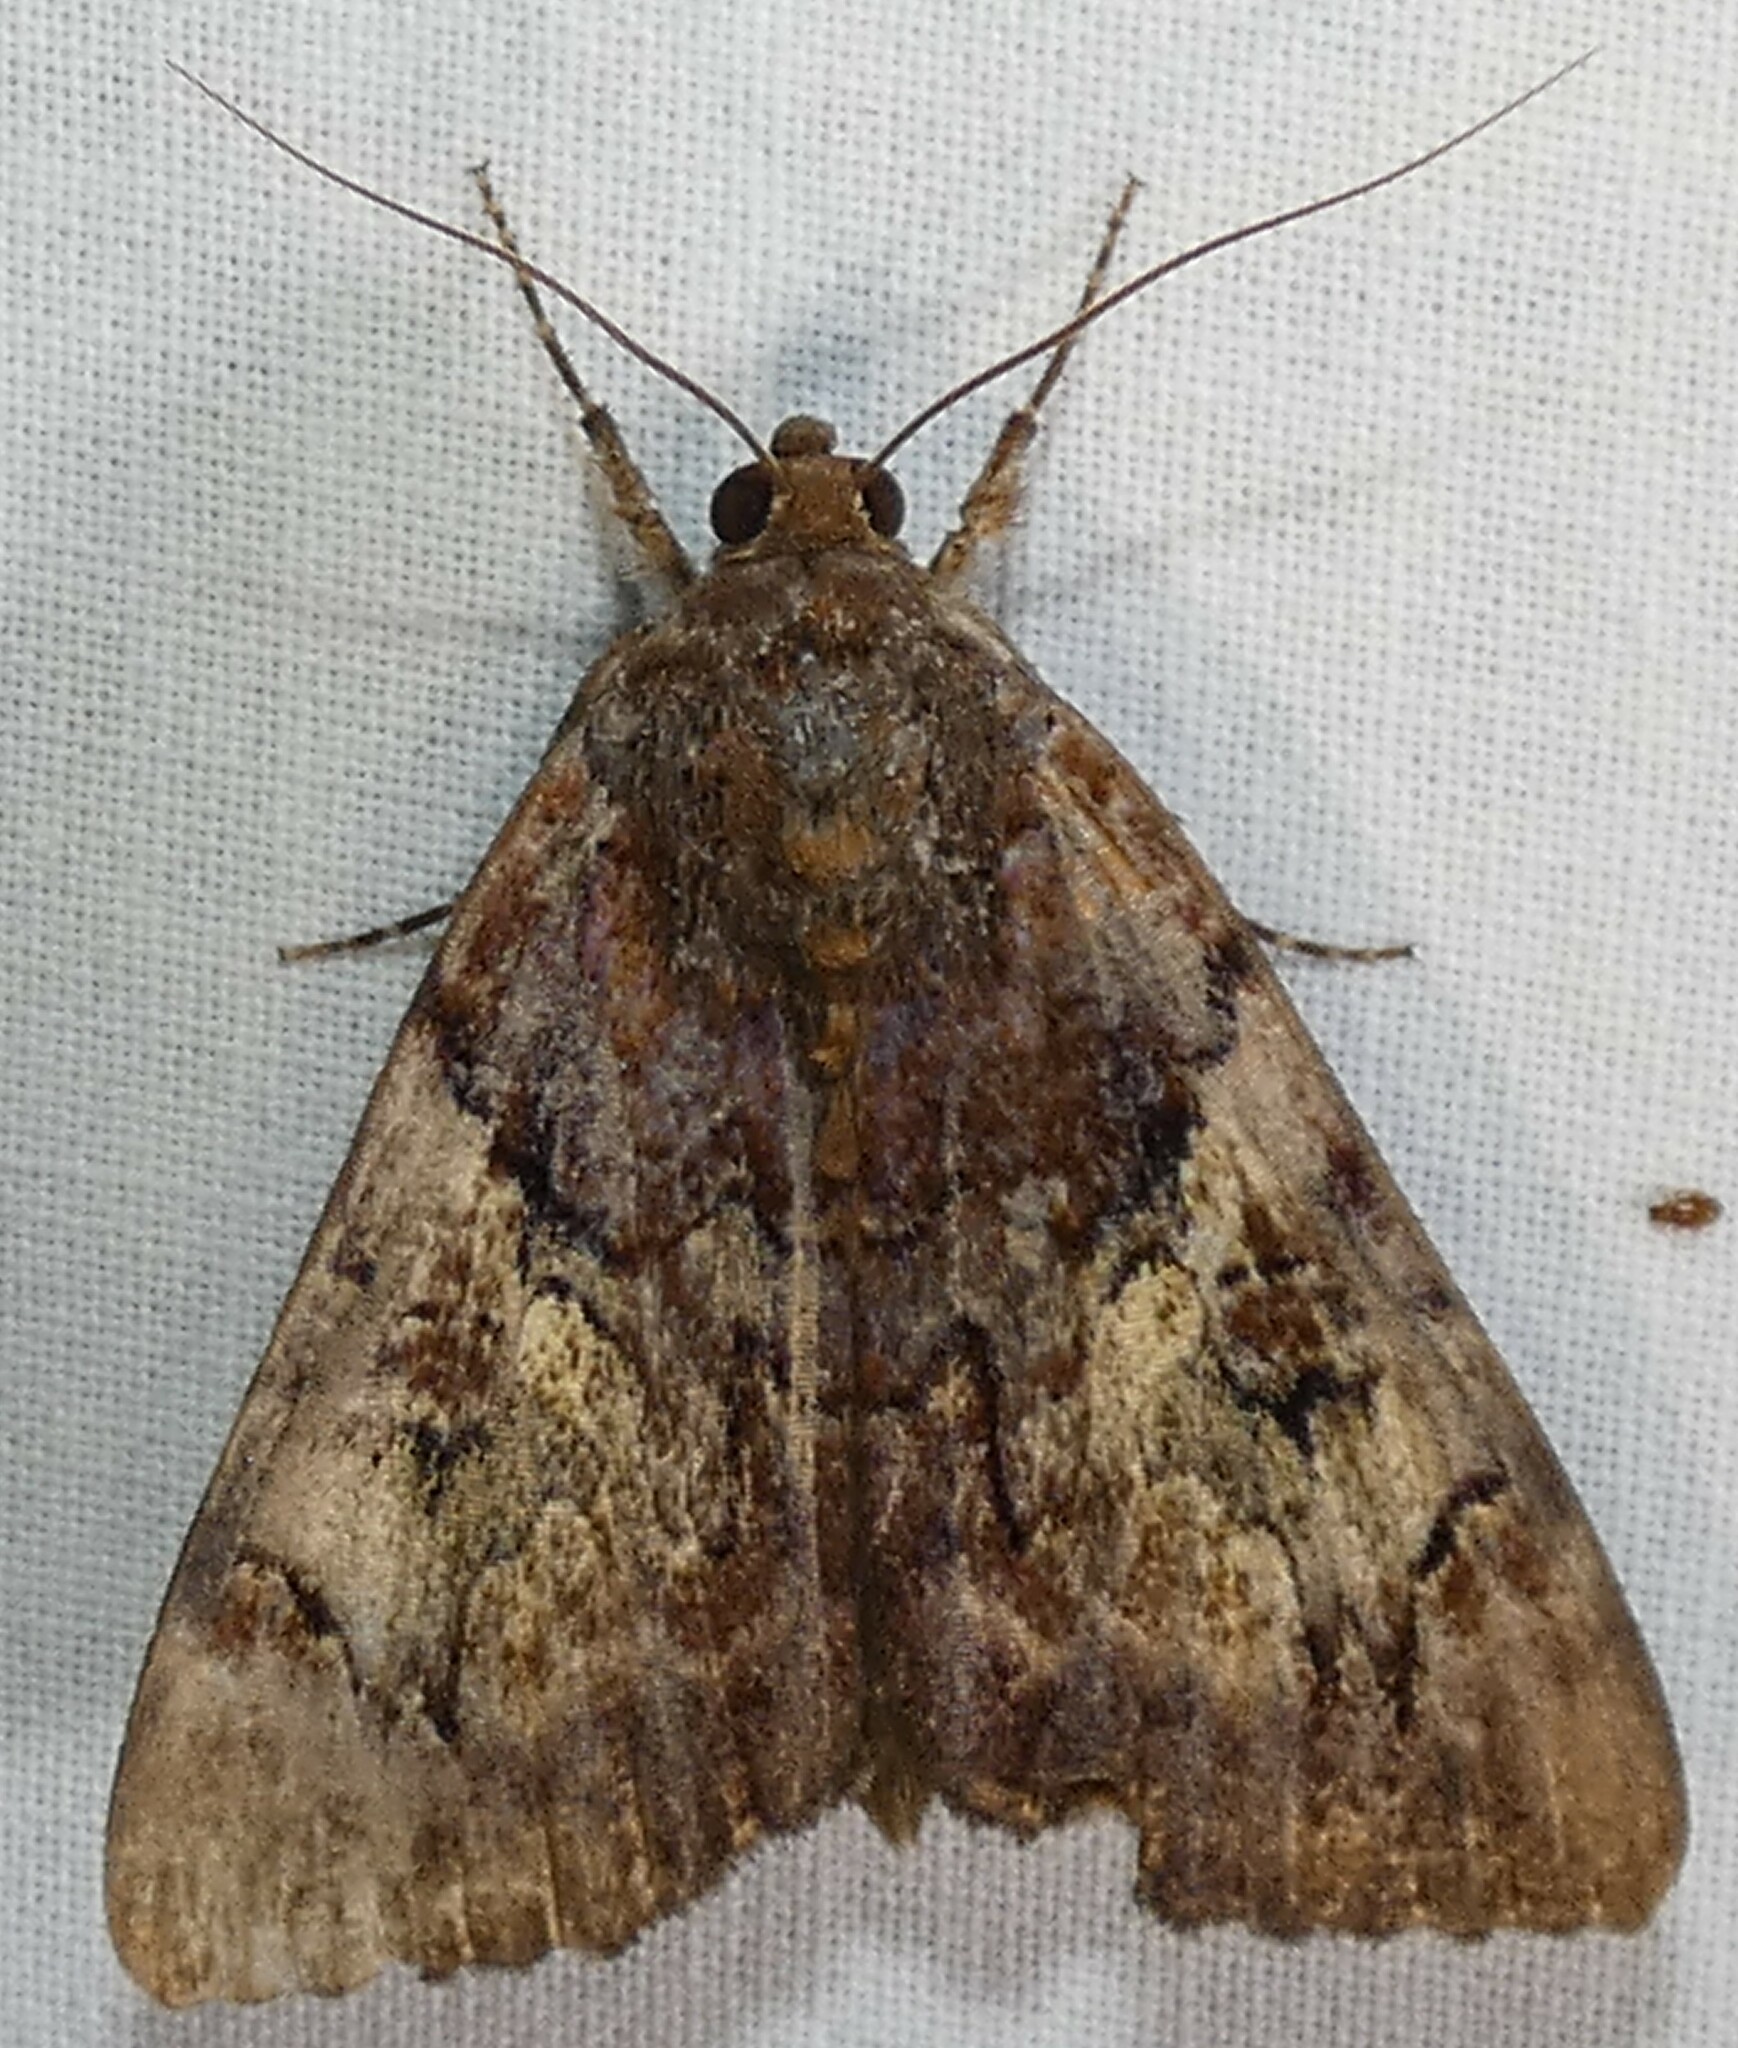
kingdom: Animalia
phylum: Arthropoda
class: Insecta
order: Lepidoptera
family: Erebidae
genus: Catocala
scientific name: Catocala muliercula
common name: The little wife underwing
